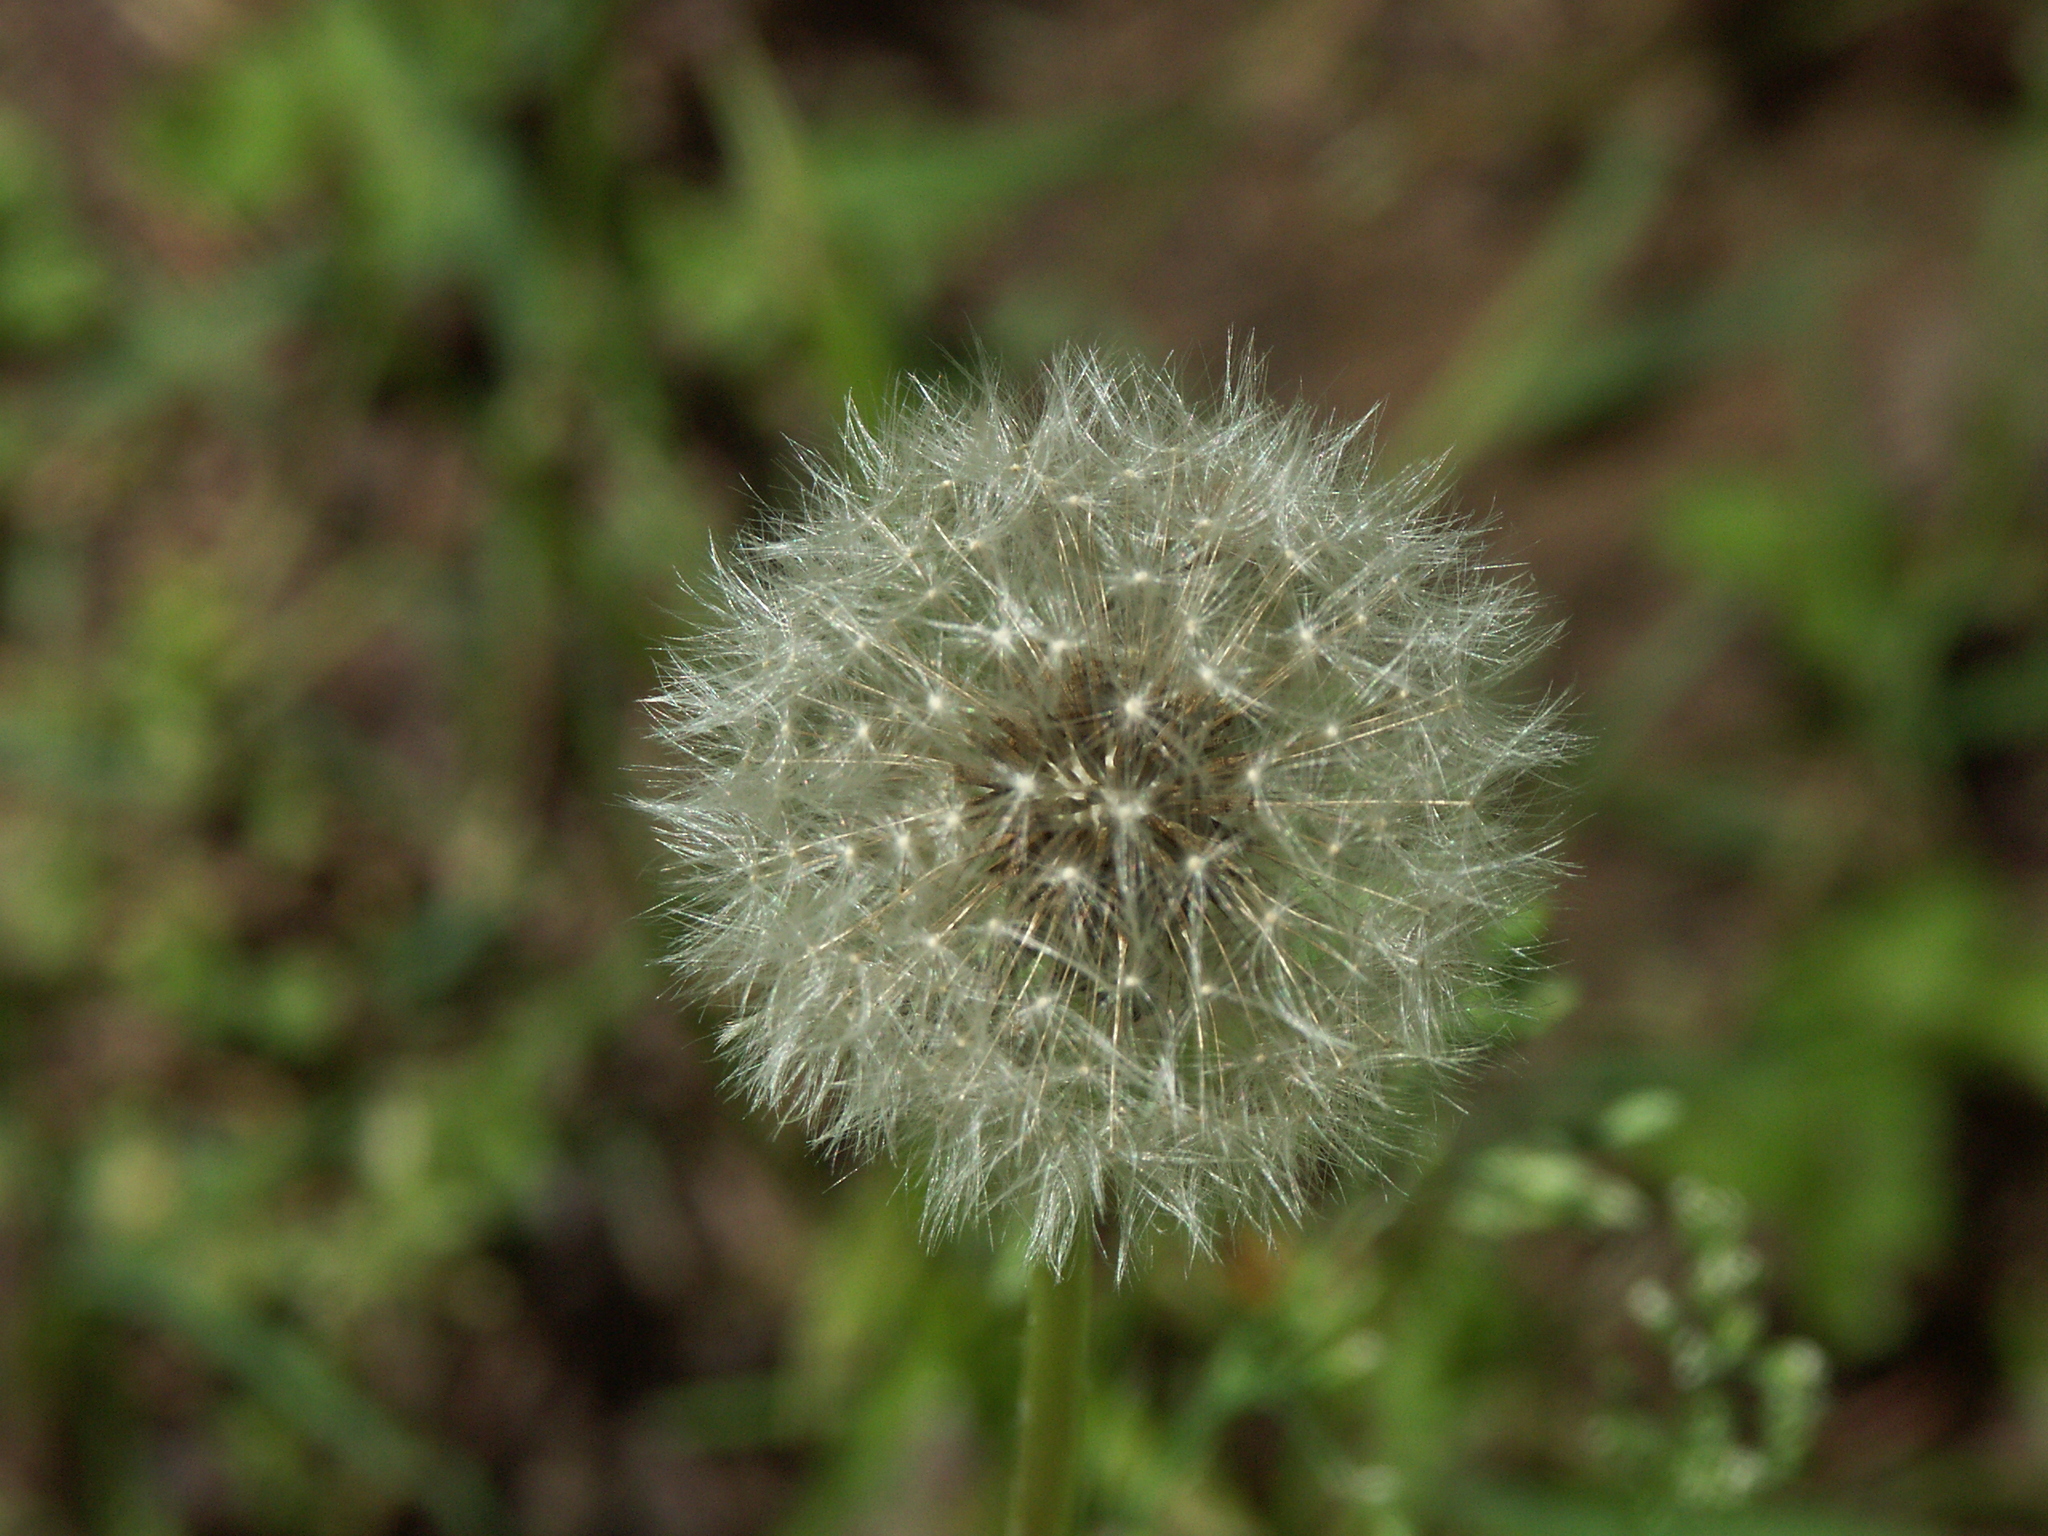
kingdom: Plantae
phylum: Tracheophyta
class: Magnoliopsida
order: Asterales
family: Asteraceae
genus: Taraxacum
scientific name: Taraxacum officinale
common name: Common dandelion
